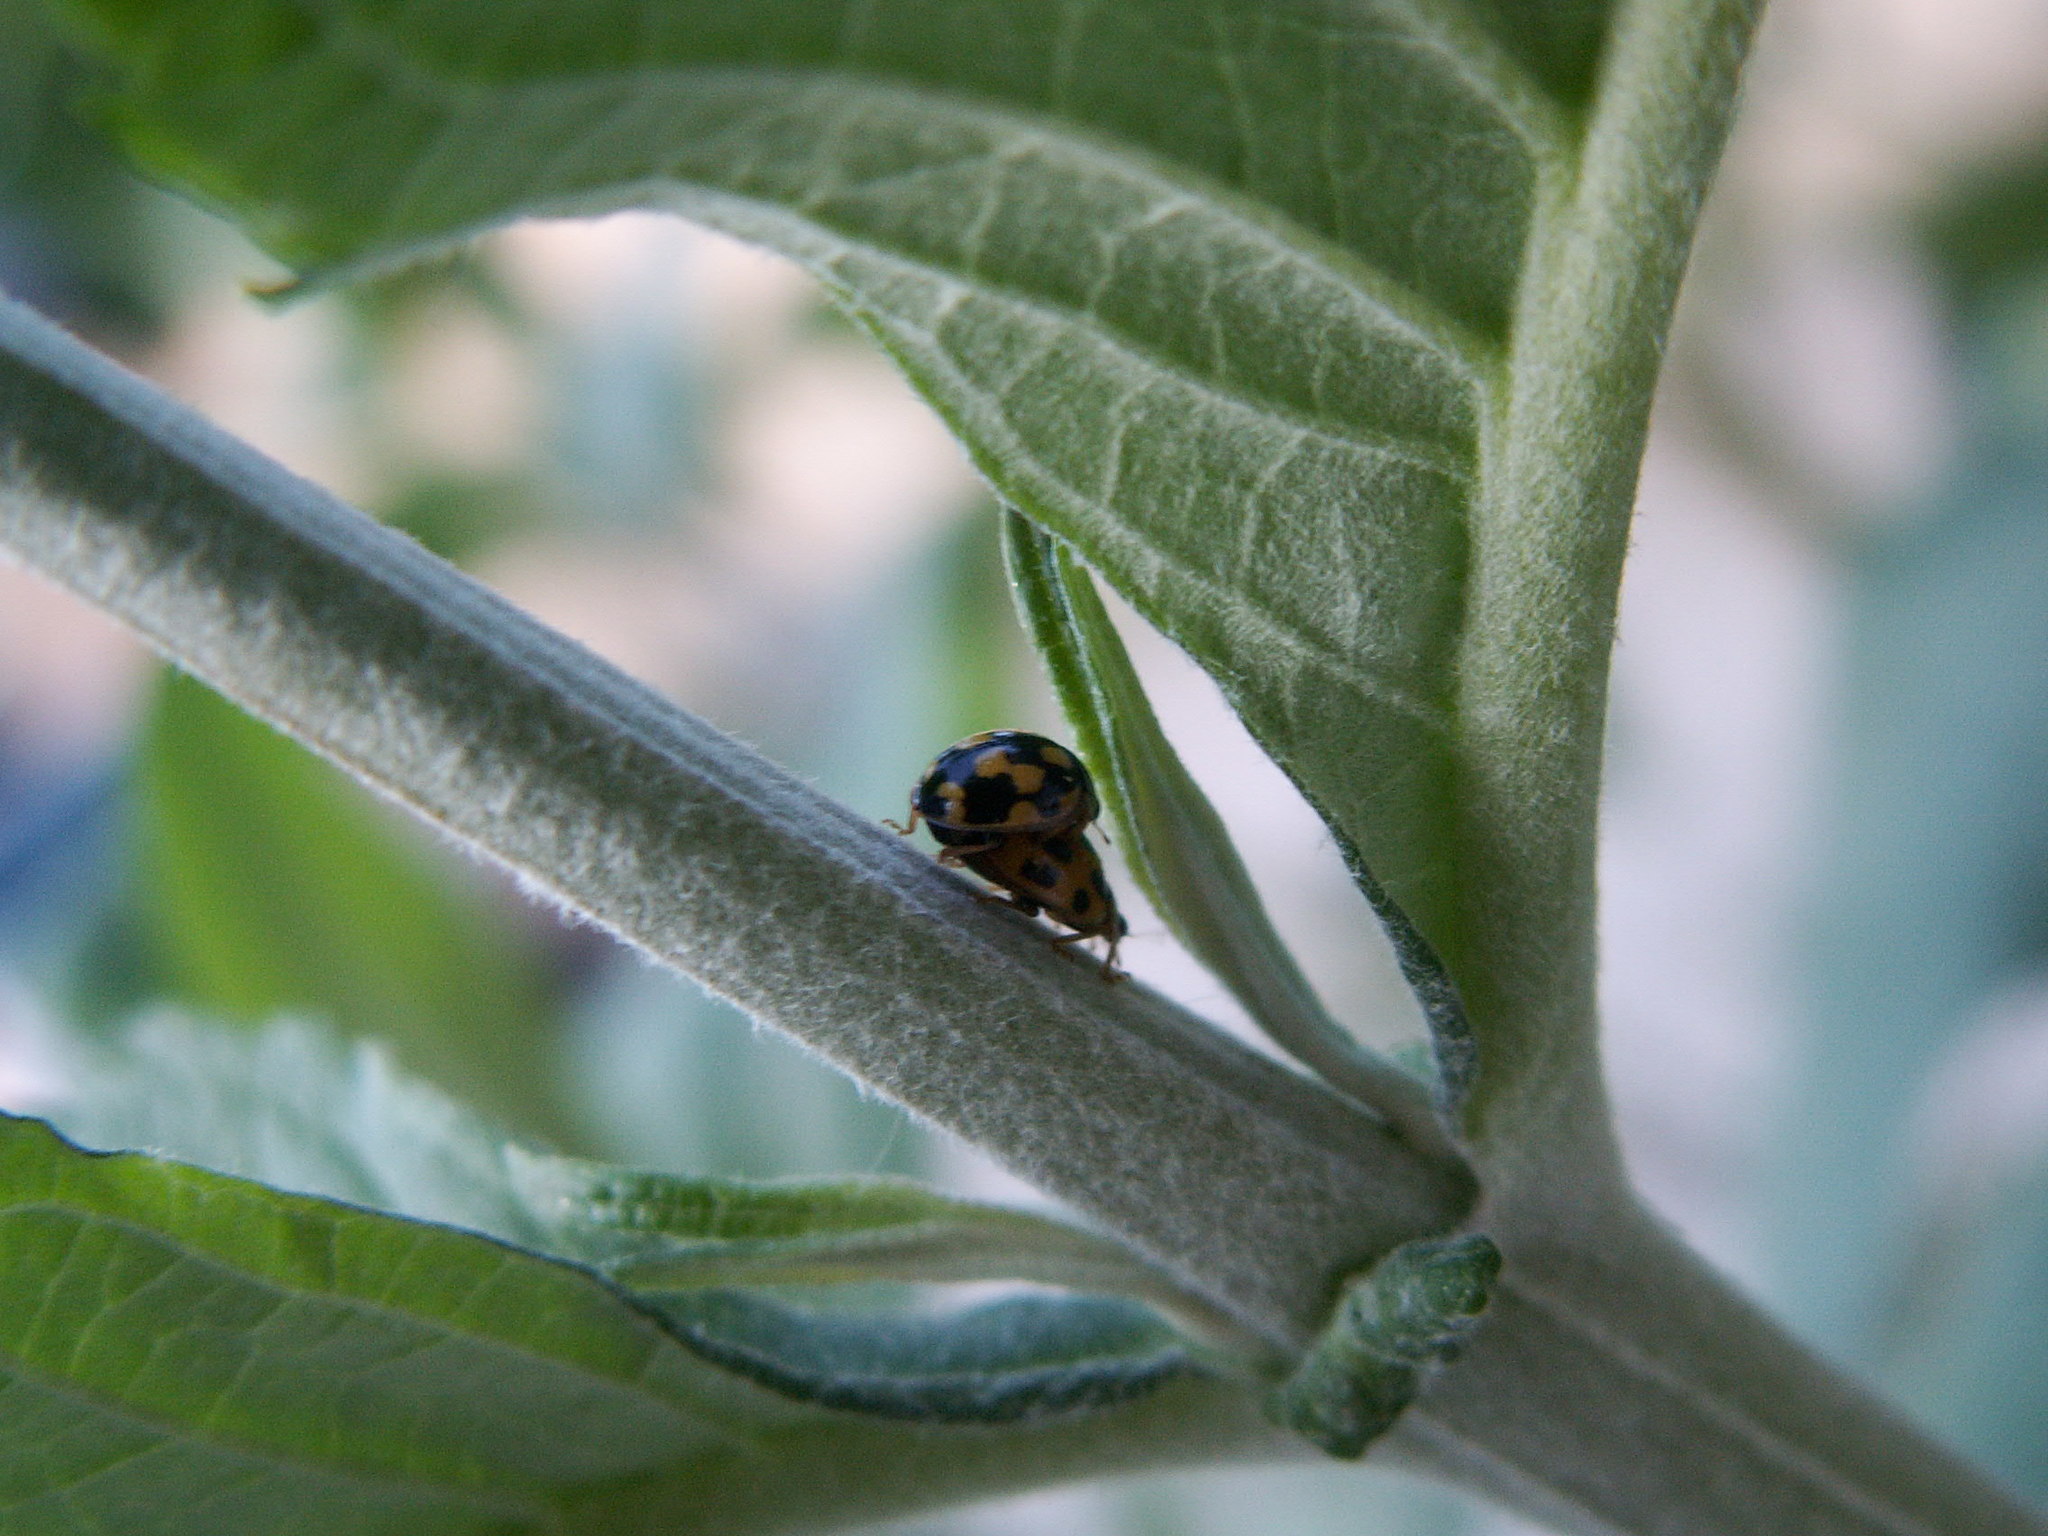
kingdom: Animalia
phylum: Arthropoda
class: Insecta
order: Coleoptera
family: Coccinellidae
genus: Propylaea
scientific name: Propylaea quatuordecimpunctata
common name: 14-spotted ladybird beetle
